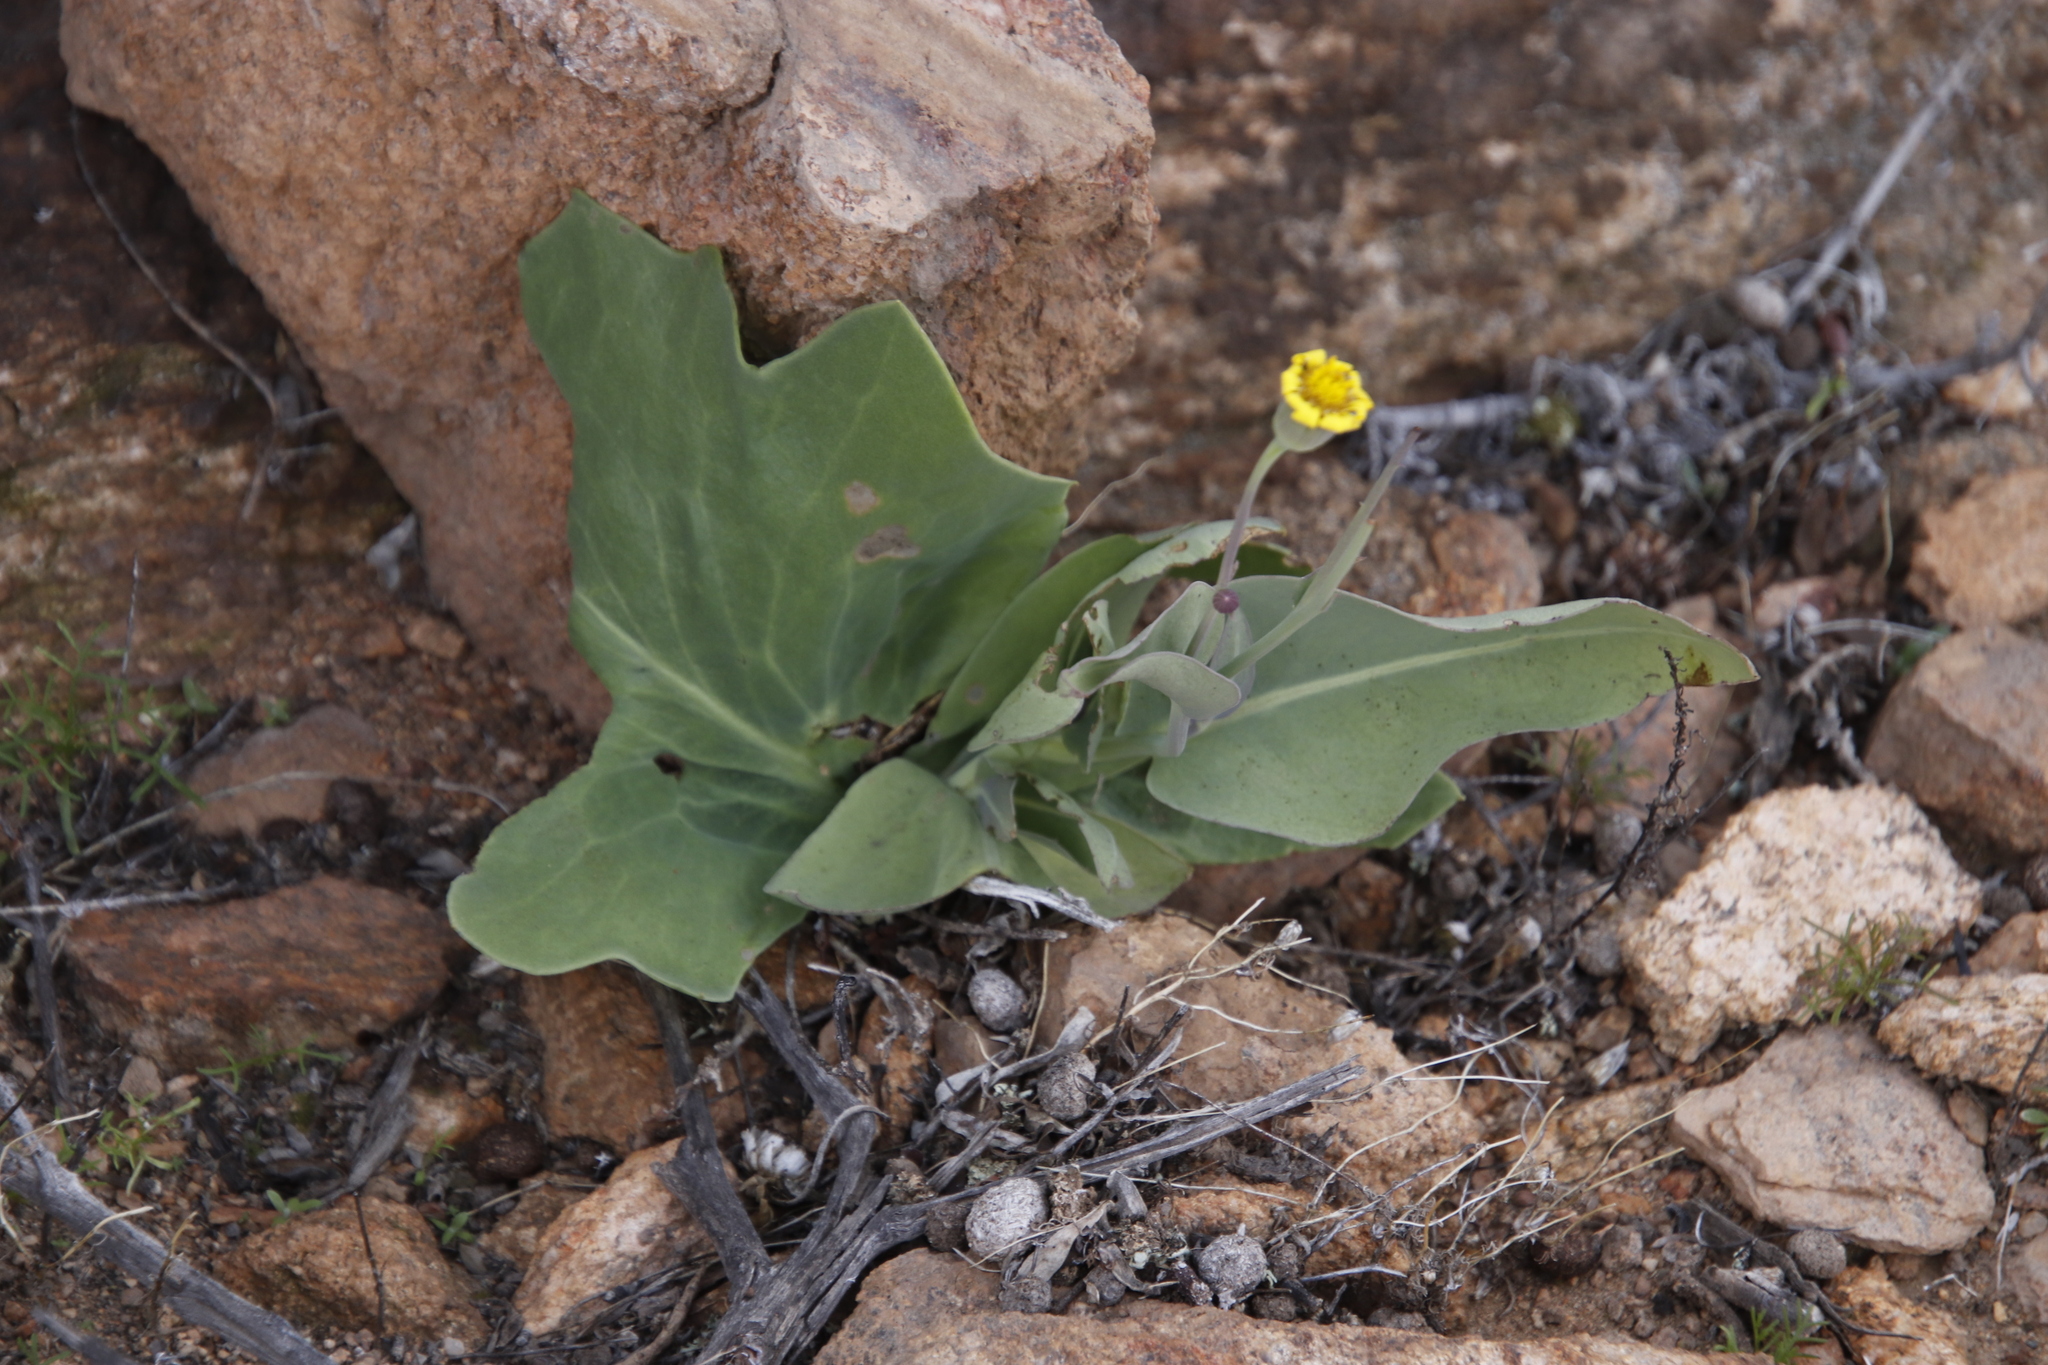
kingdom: Plantae
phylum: Tracheophyta
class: Magnoliopsida
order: Asterales
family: Asteraceae
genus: Othonna
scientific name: Othonna macrophylla
